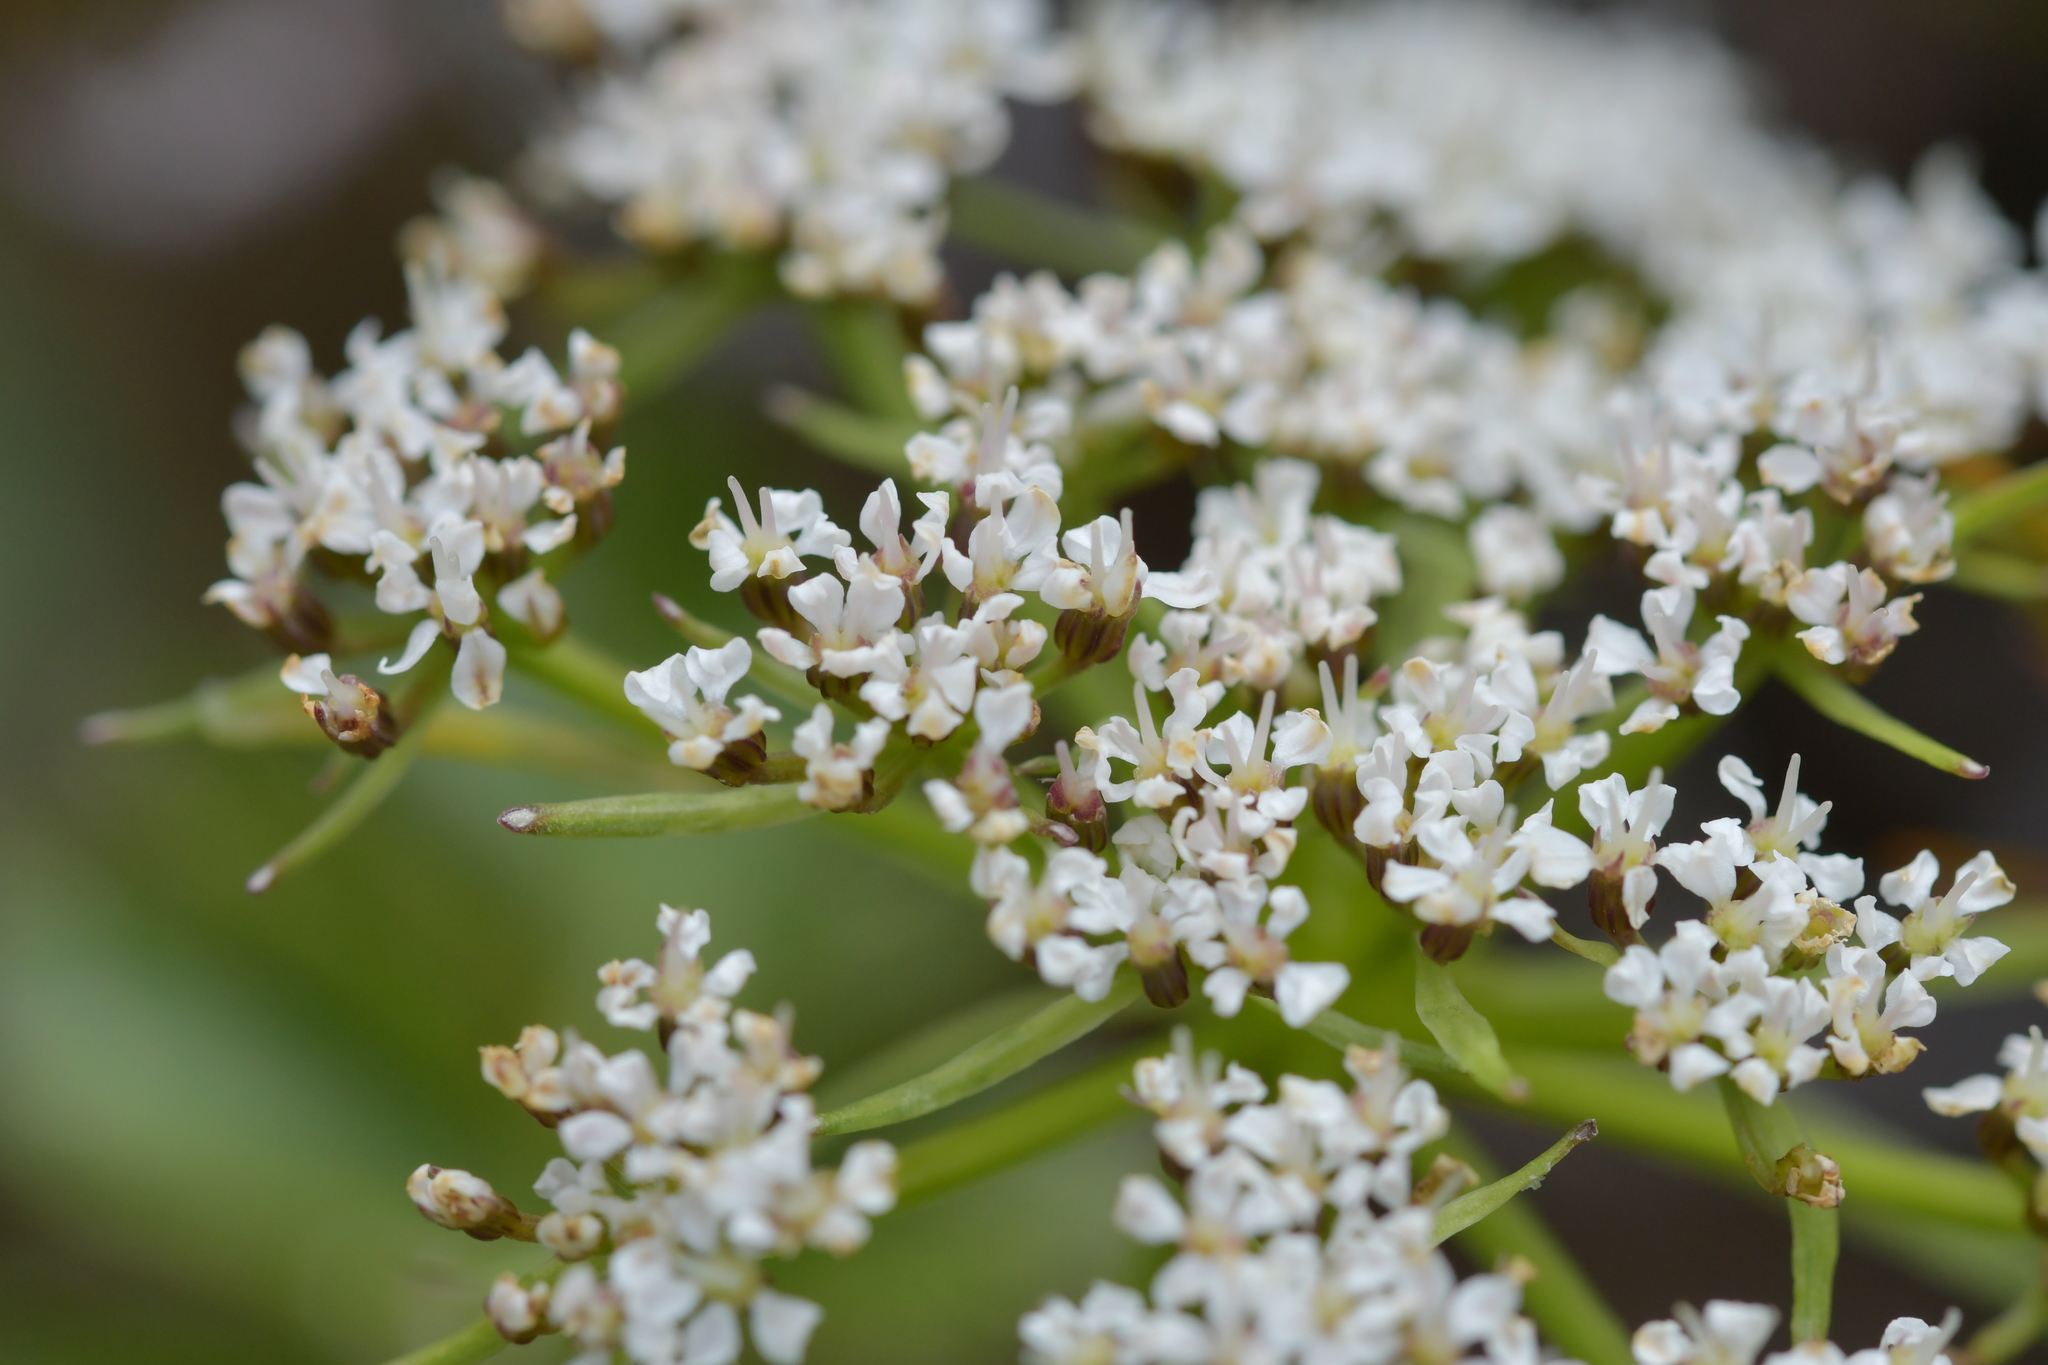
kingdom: Plantae
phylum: Tracheophyta
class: Magnoliopsida
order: Apiales
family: Apiaceae
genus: Gingidia
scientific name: Gingidia montana
